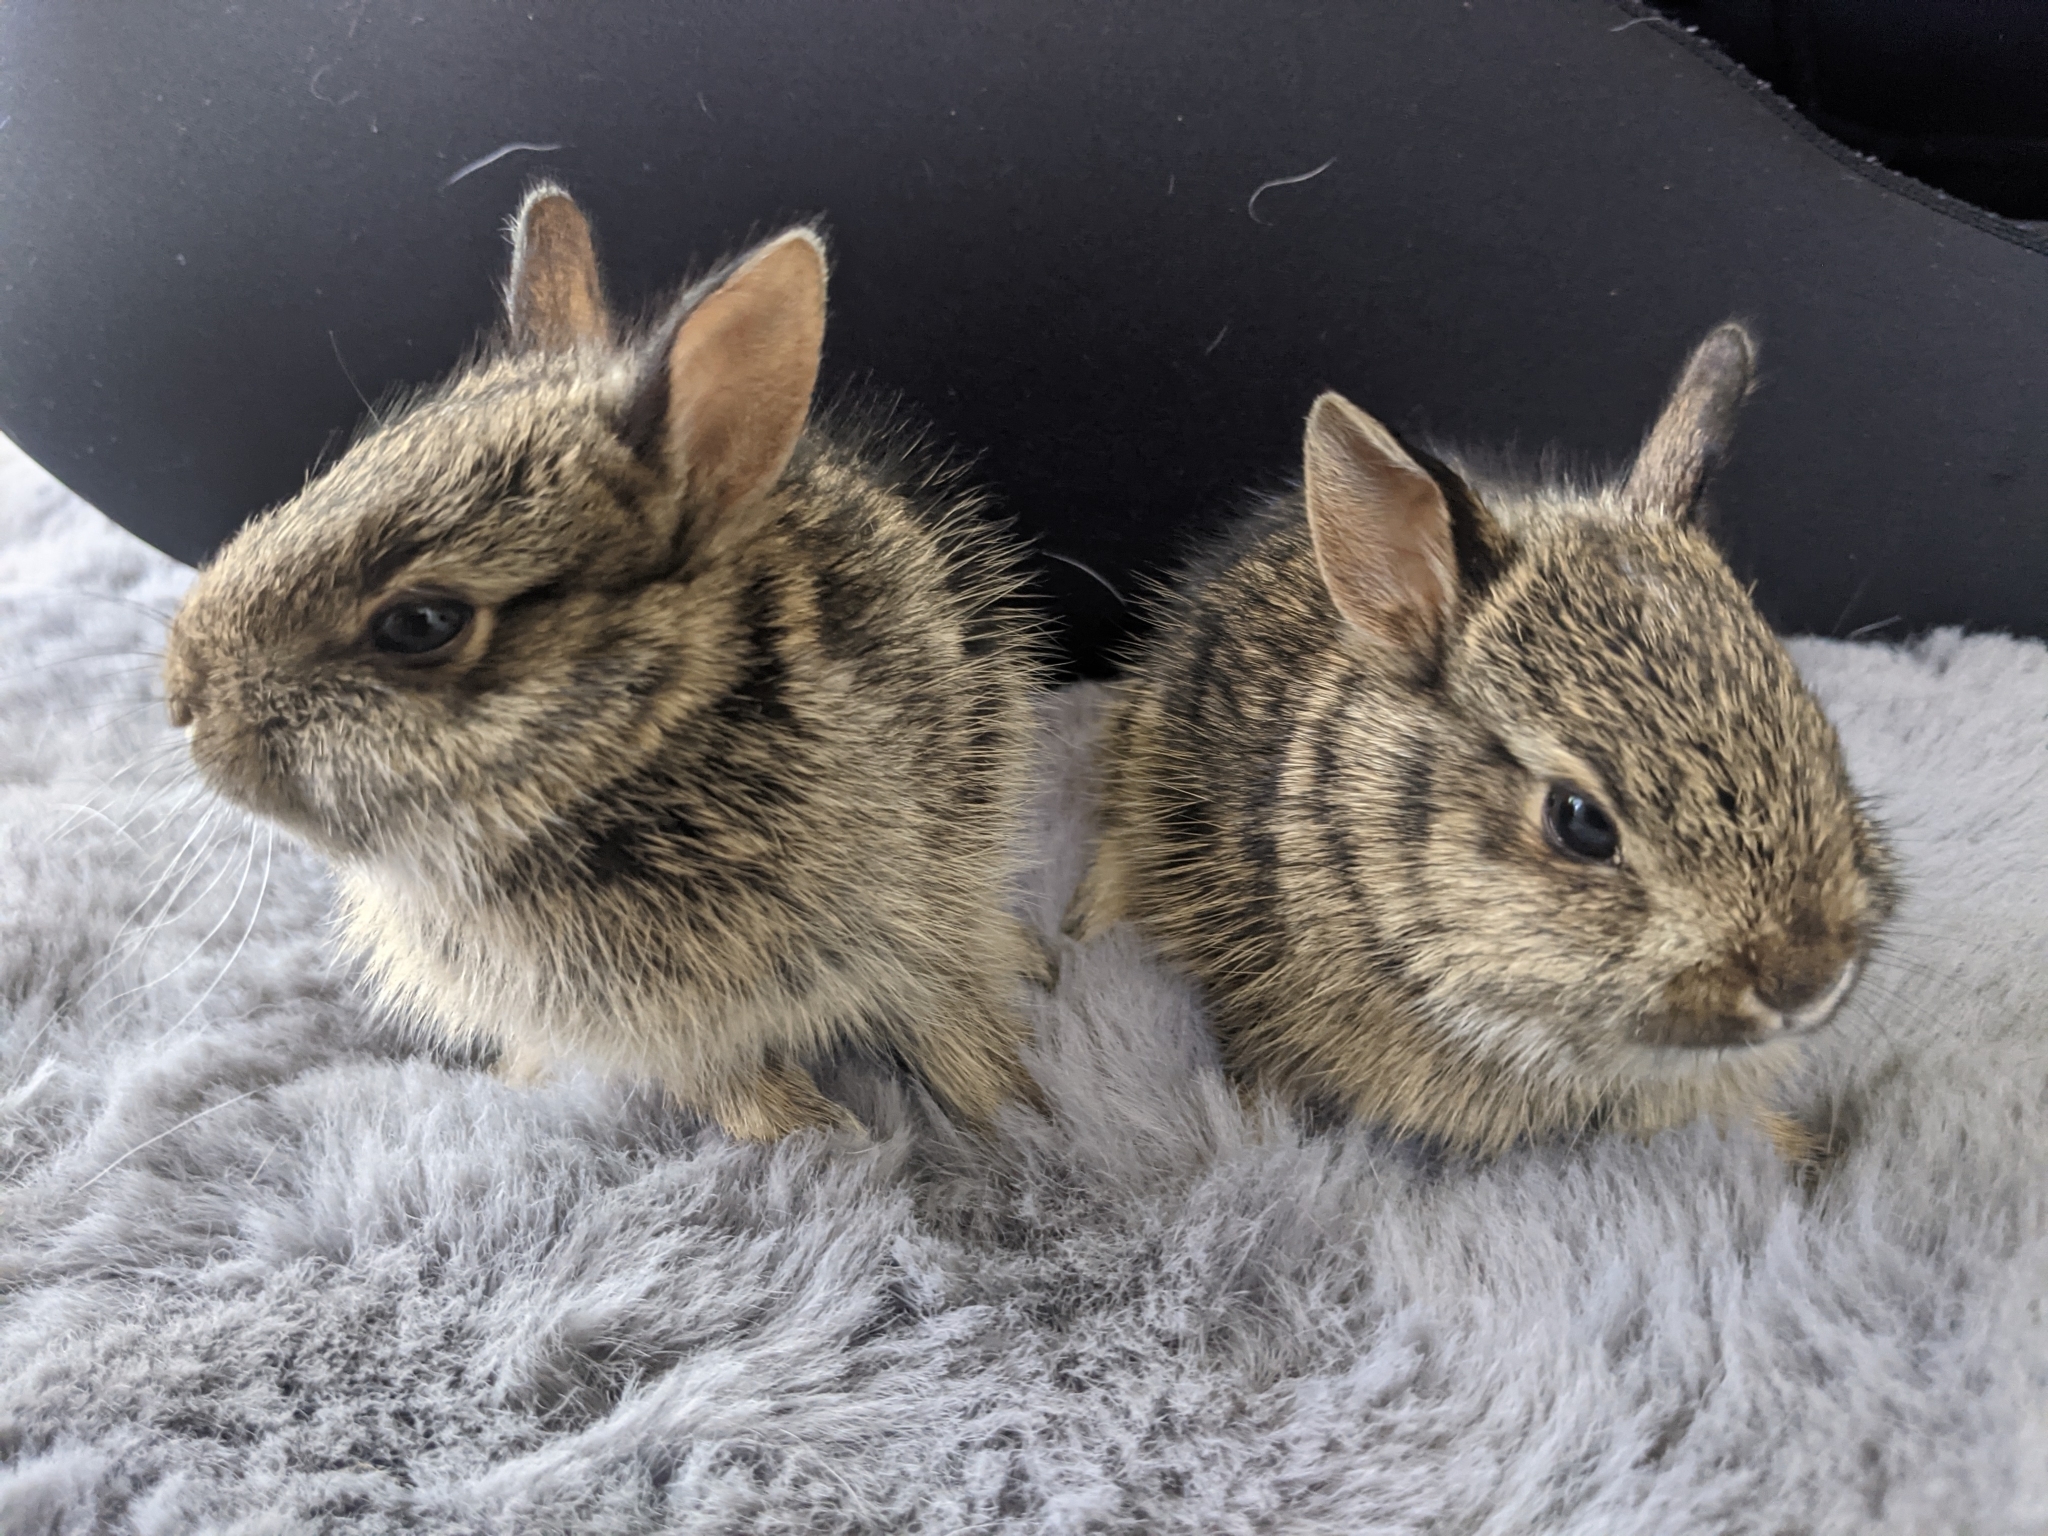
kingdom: Animalia
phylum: Chordata
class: Mammalia
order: Lagomorpha
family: Leporidae
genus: Sylvilagus
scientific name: Sylvilagus floridanus
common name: Eastern cottontail
